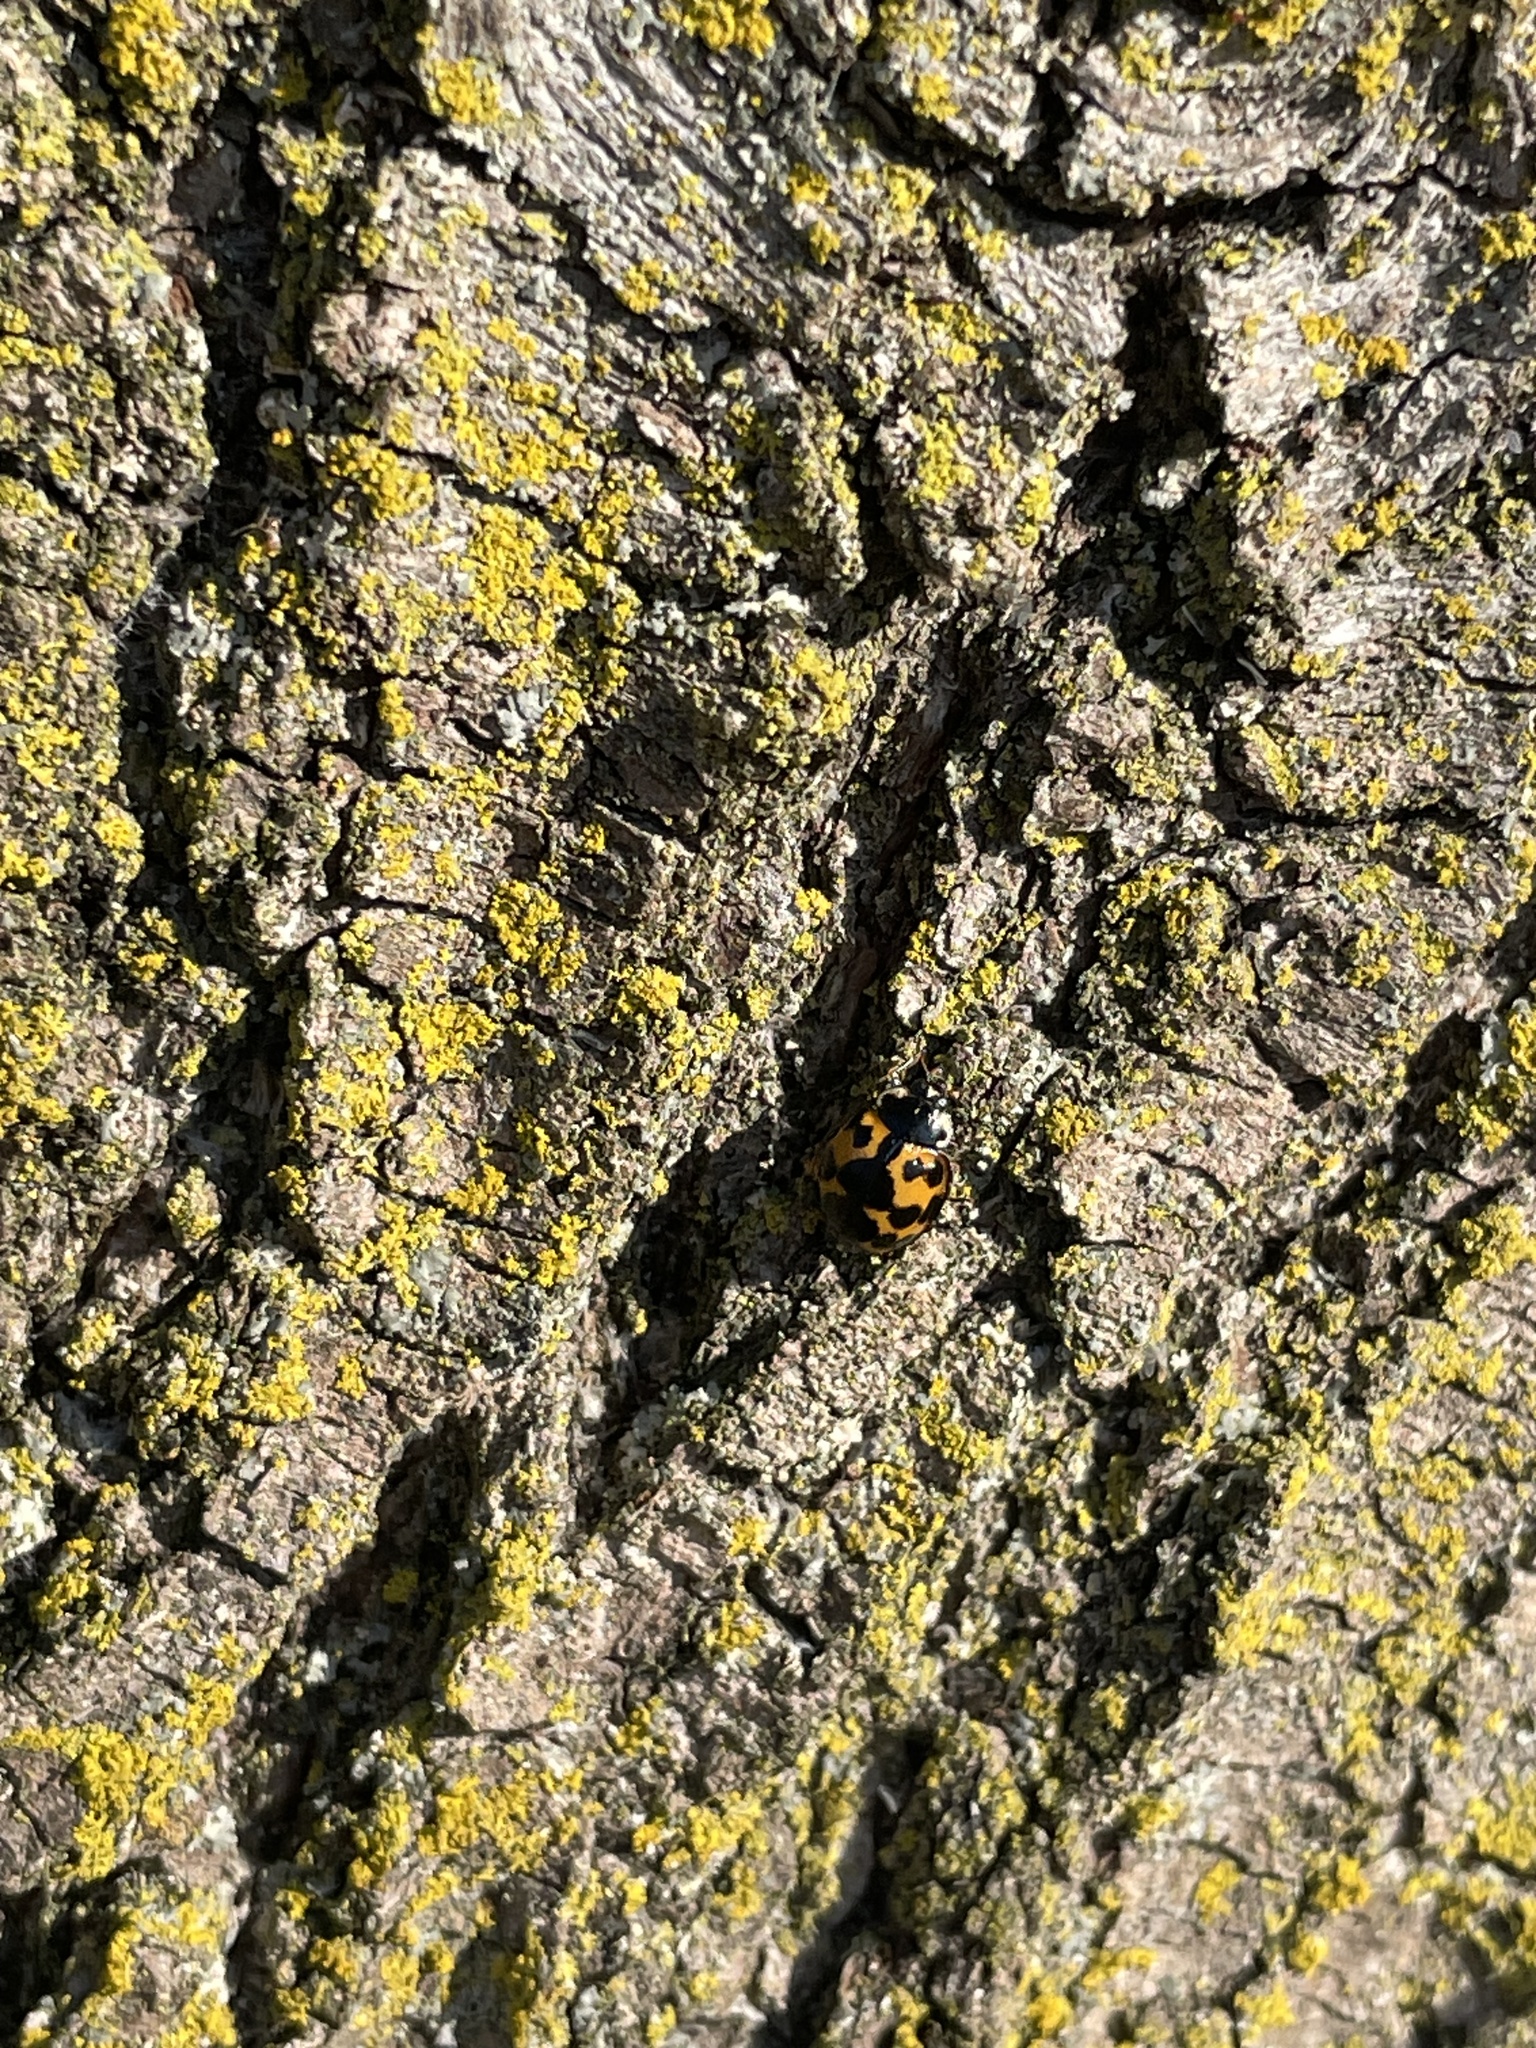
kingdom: Animalia
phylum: Arthropoda
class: Insecta
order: Coleoptera
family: Coccinellidae
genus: Harmonia
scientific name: Harmonia axyridis
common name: Harlequin ladybird
